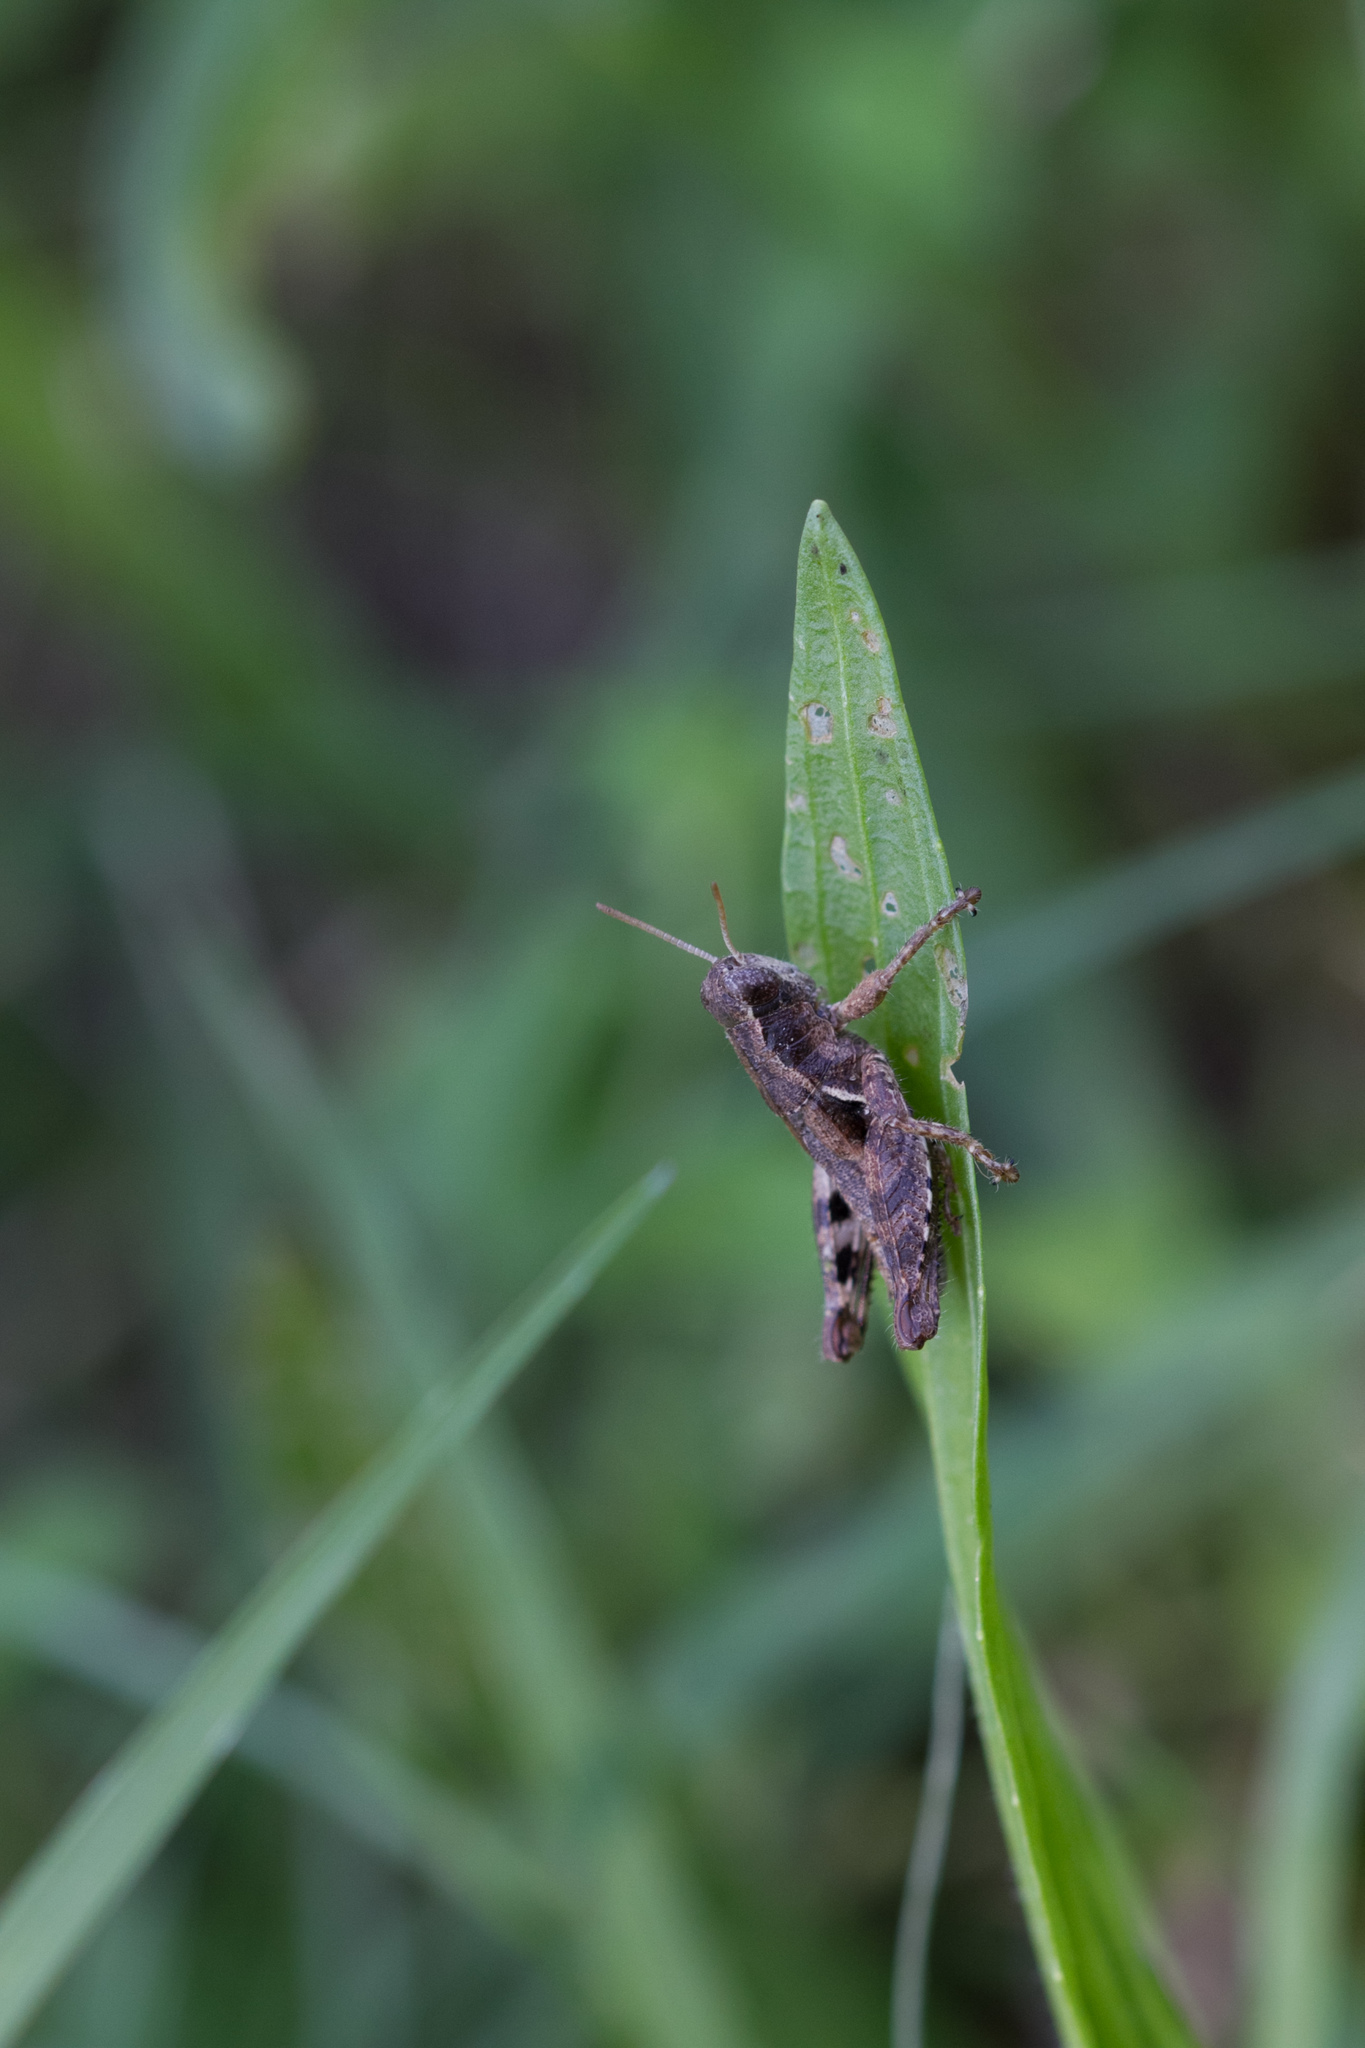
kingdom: Animalia
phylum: Arthropoda
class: Insecta
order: Orthoptera
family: Acrididae
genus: Pezotettix
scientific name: Pezotettix giornae
